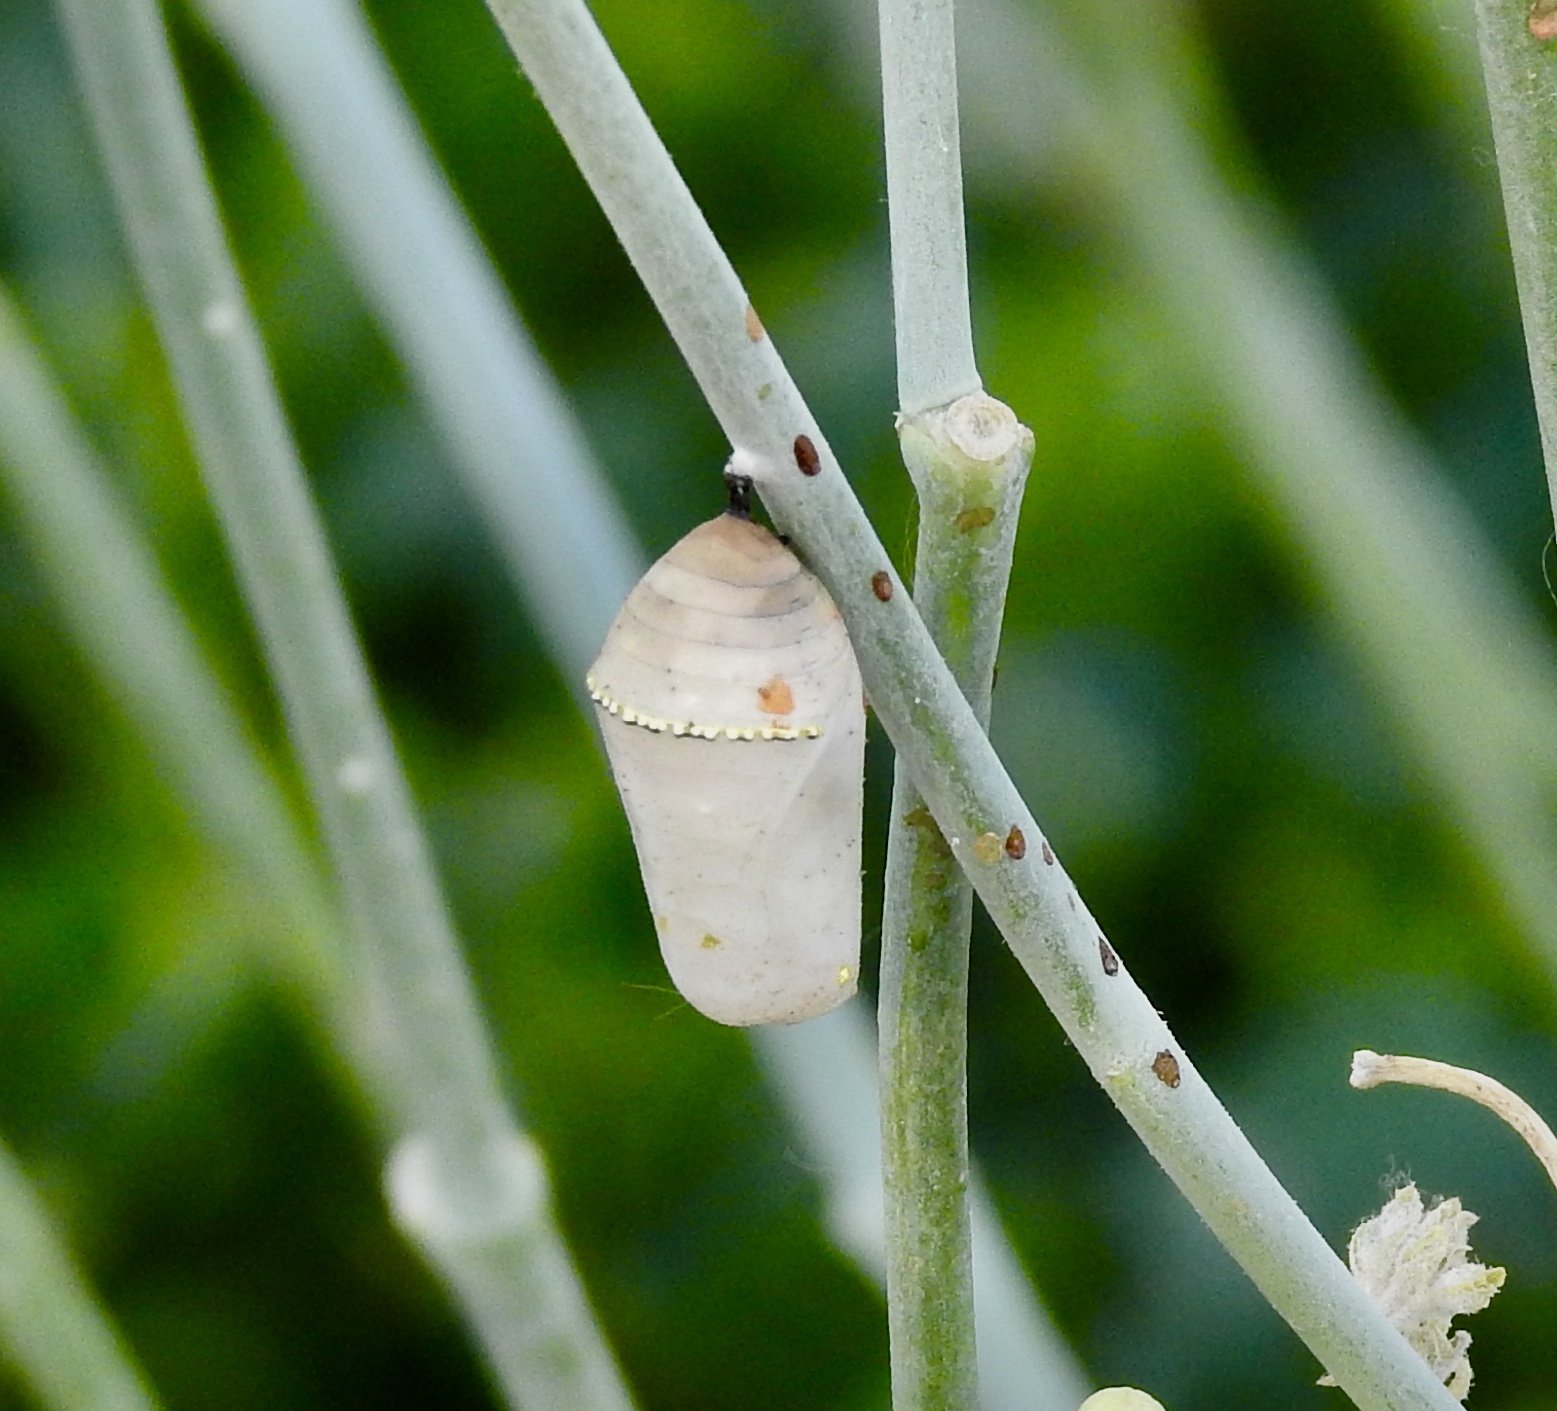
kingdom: Animalia
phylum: Arthropoda
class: Insecta
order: Lepidoptera
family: Nymphalidae
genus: Danaus
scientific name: Danaus plexippus
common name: Monarch
